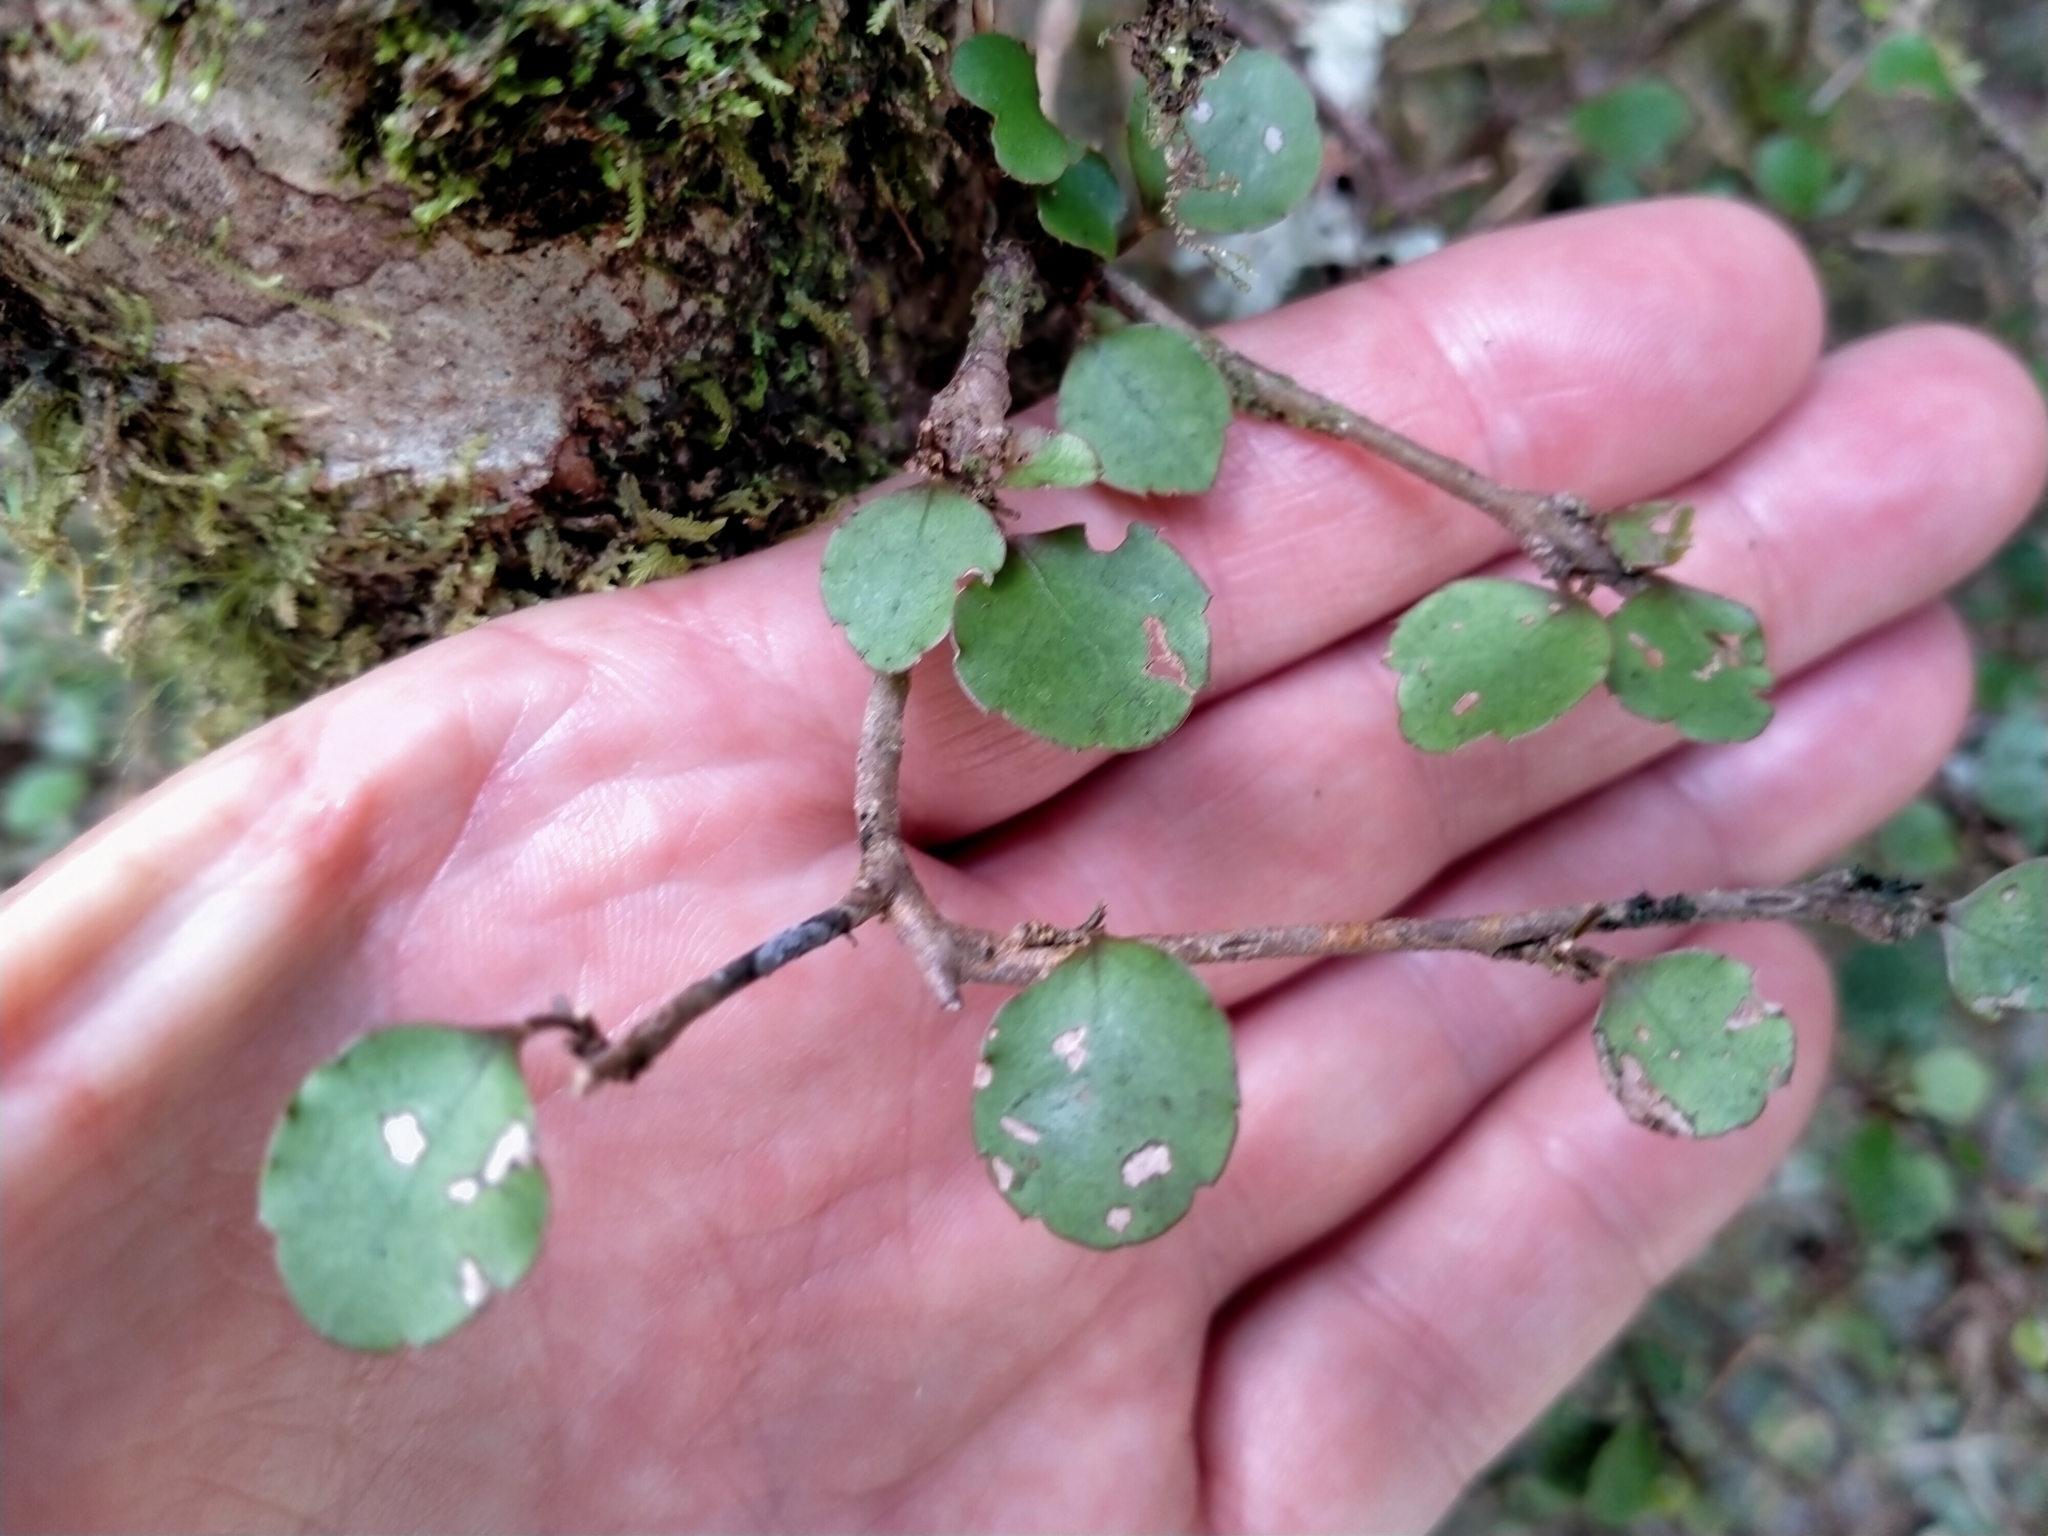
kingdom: Plantae
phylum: Tracheophyta
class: Magnoliopsida
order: Apiales
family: Araliaceae
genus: Raukaua
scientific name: Raukaua anomalus
